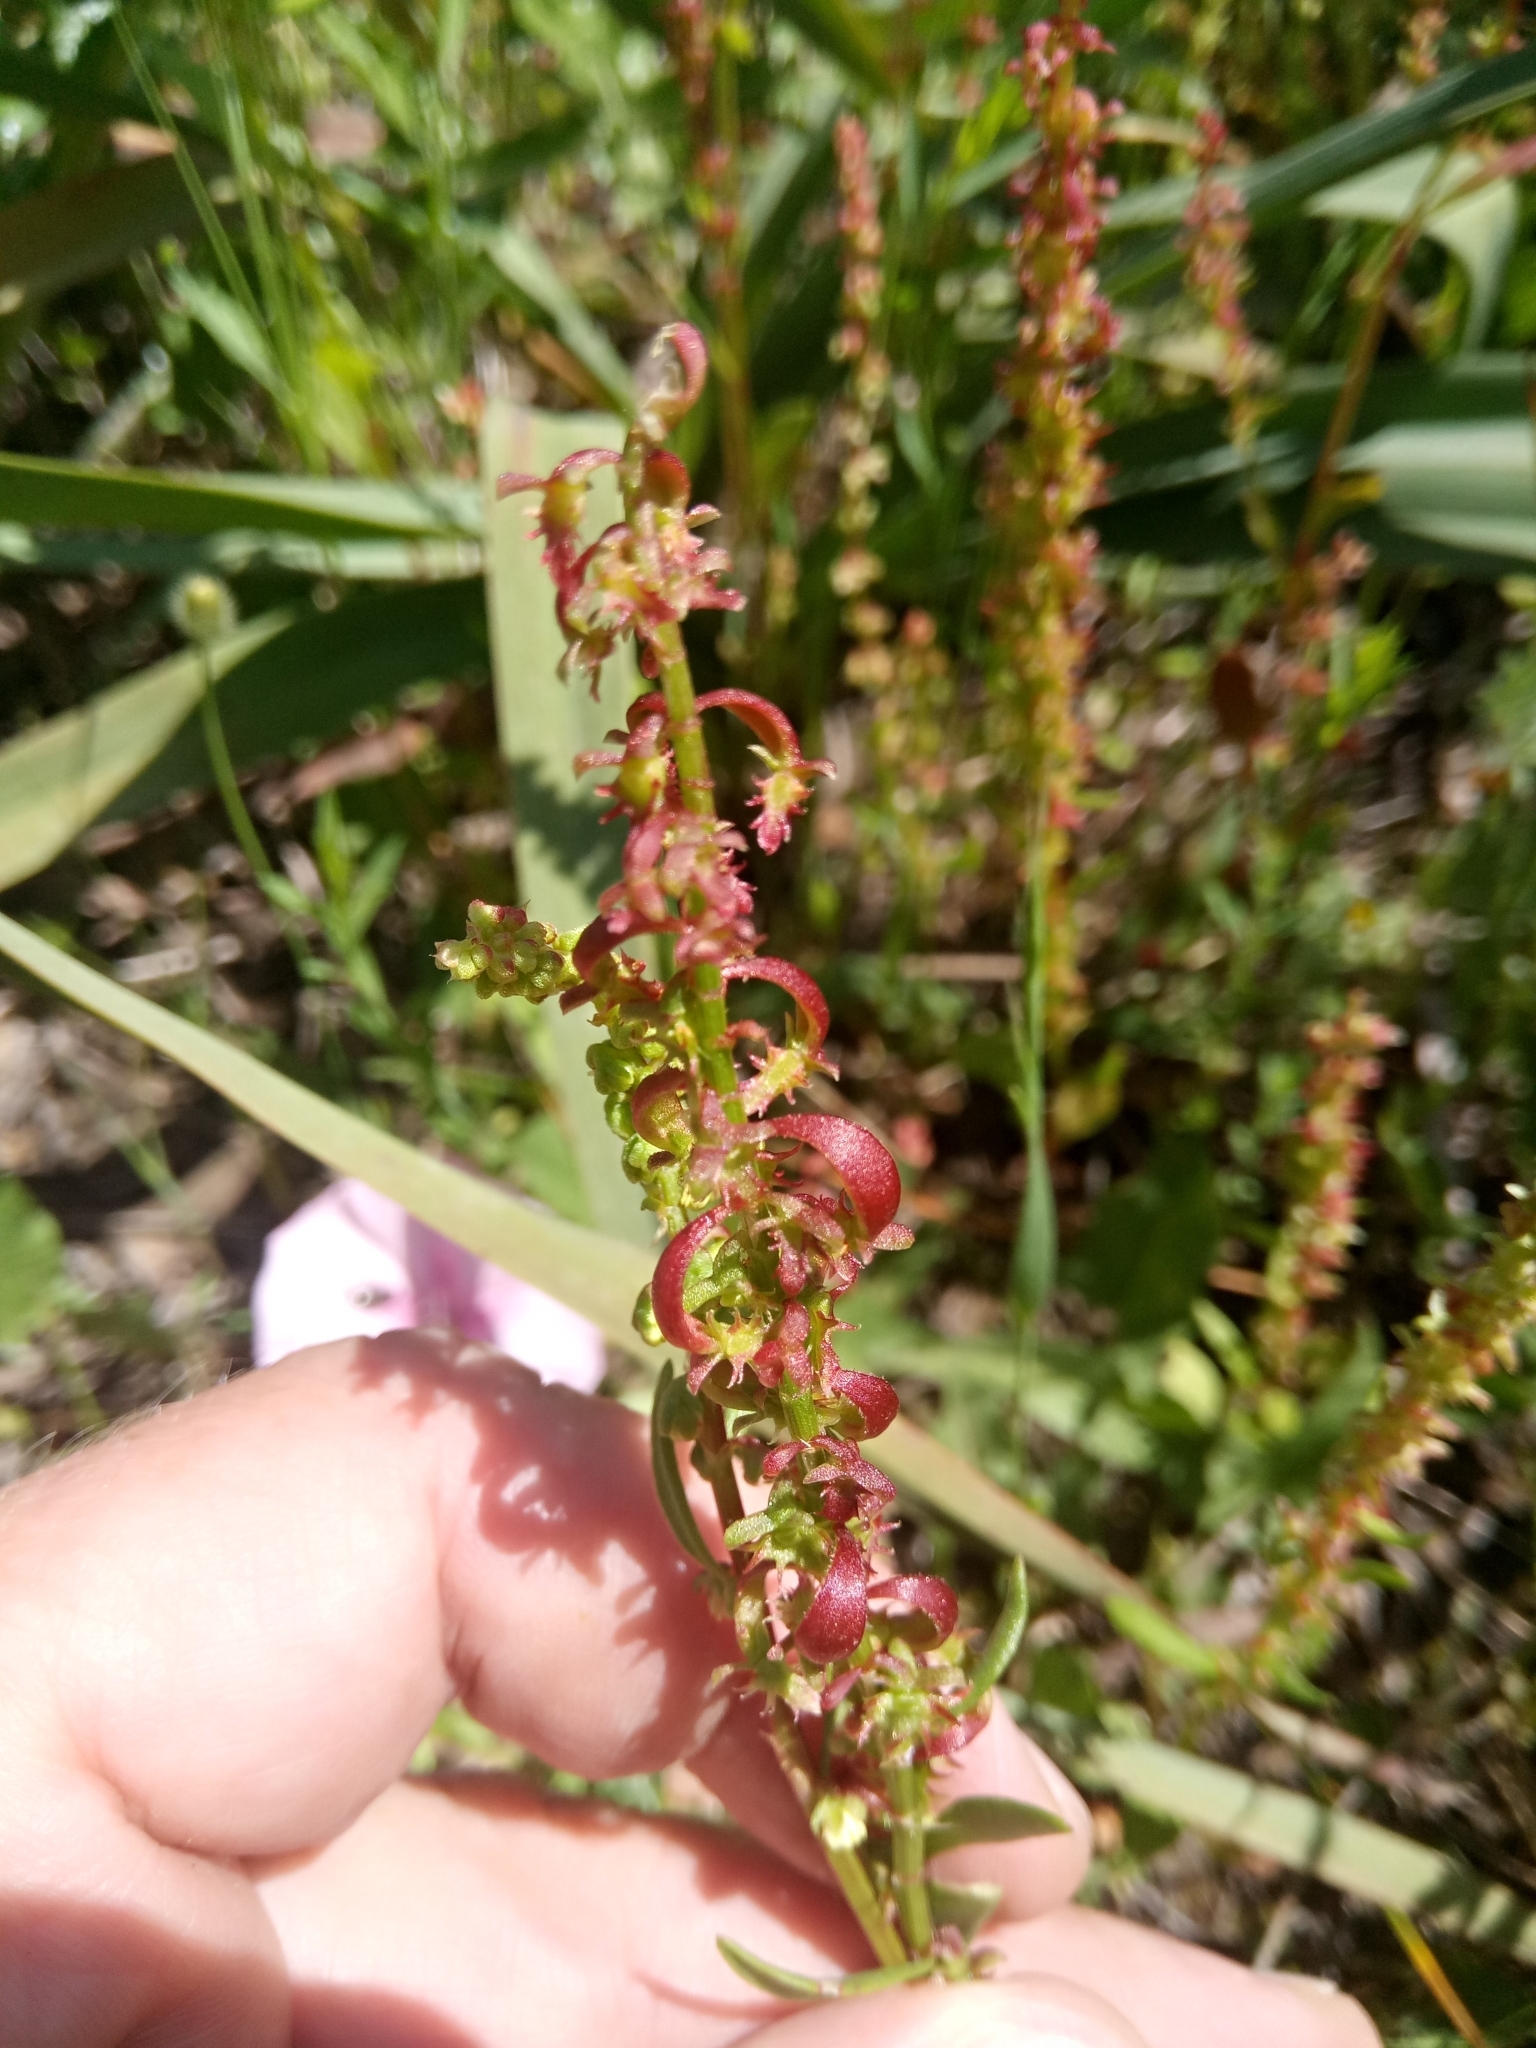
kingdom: Plantae
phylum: Tracheophyta
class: Magnoliopsida
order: Caryophyllales
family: Polygonaceae
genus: Rumex
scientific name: Rumex bucephalophorus
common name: Red dock
